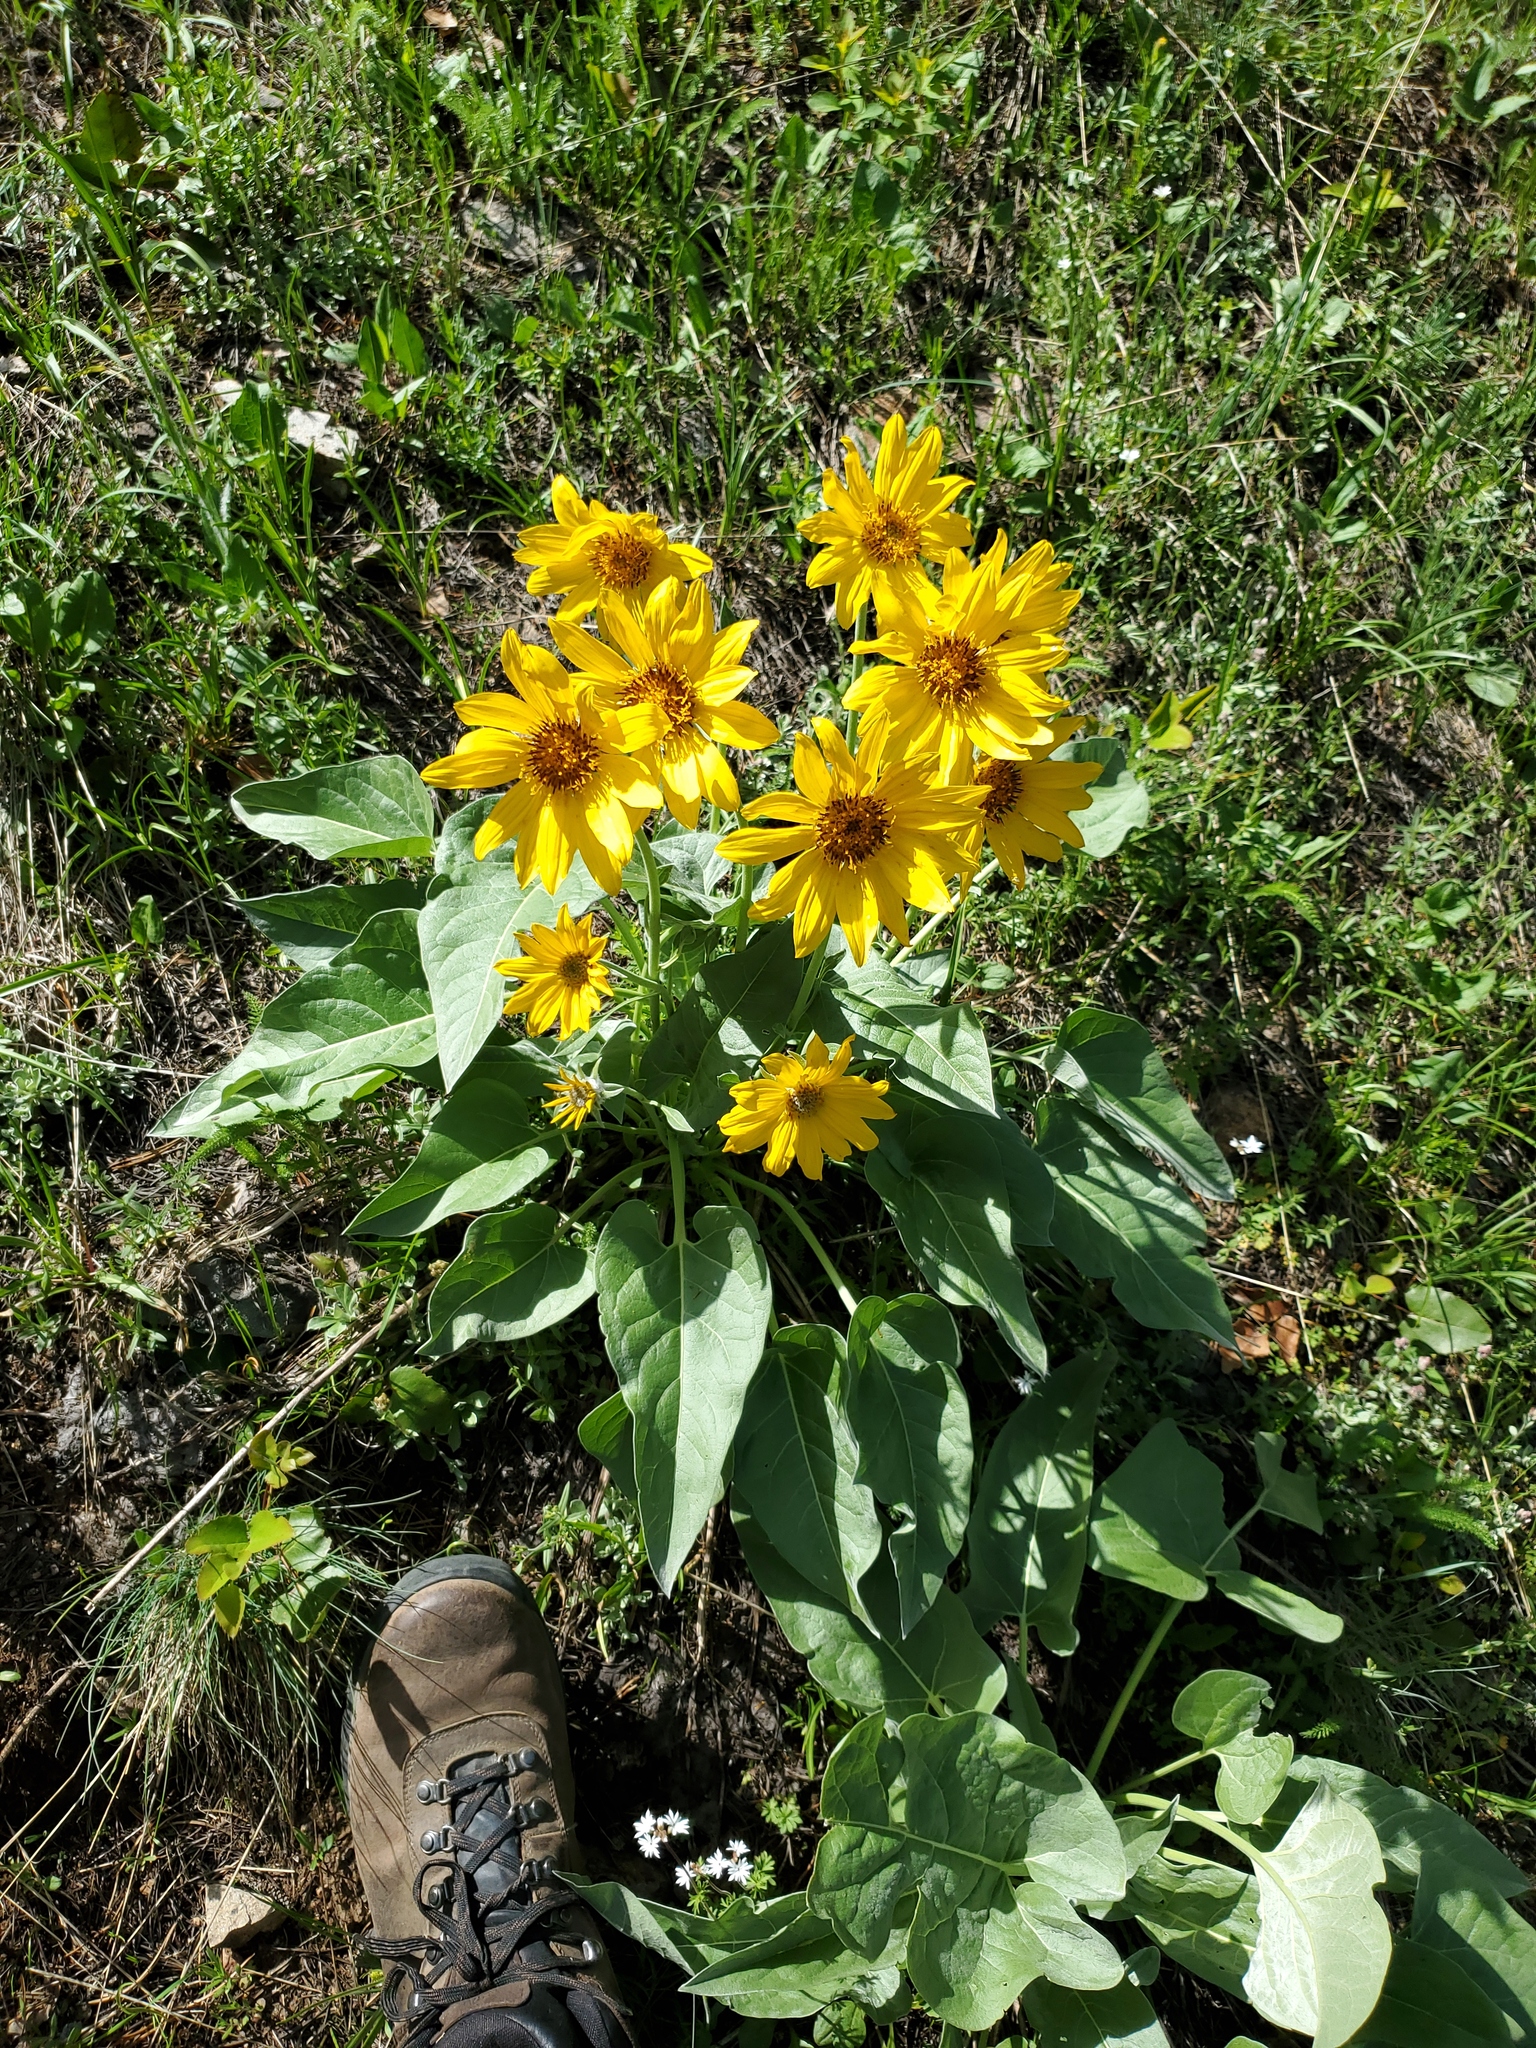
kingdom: Plantae
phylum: Tracheophyta
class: Magnoliopsida
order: Asterales
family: Asteraceae
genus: Wyethia
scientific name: Wyethia sagittata
